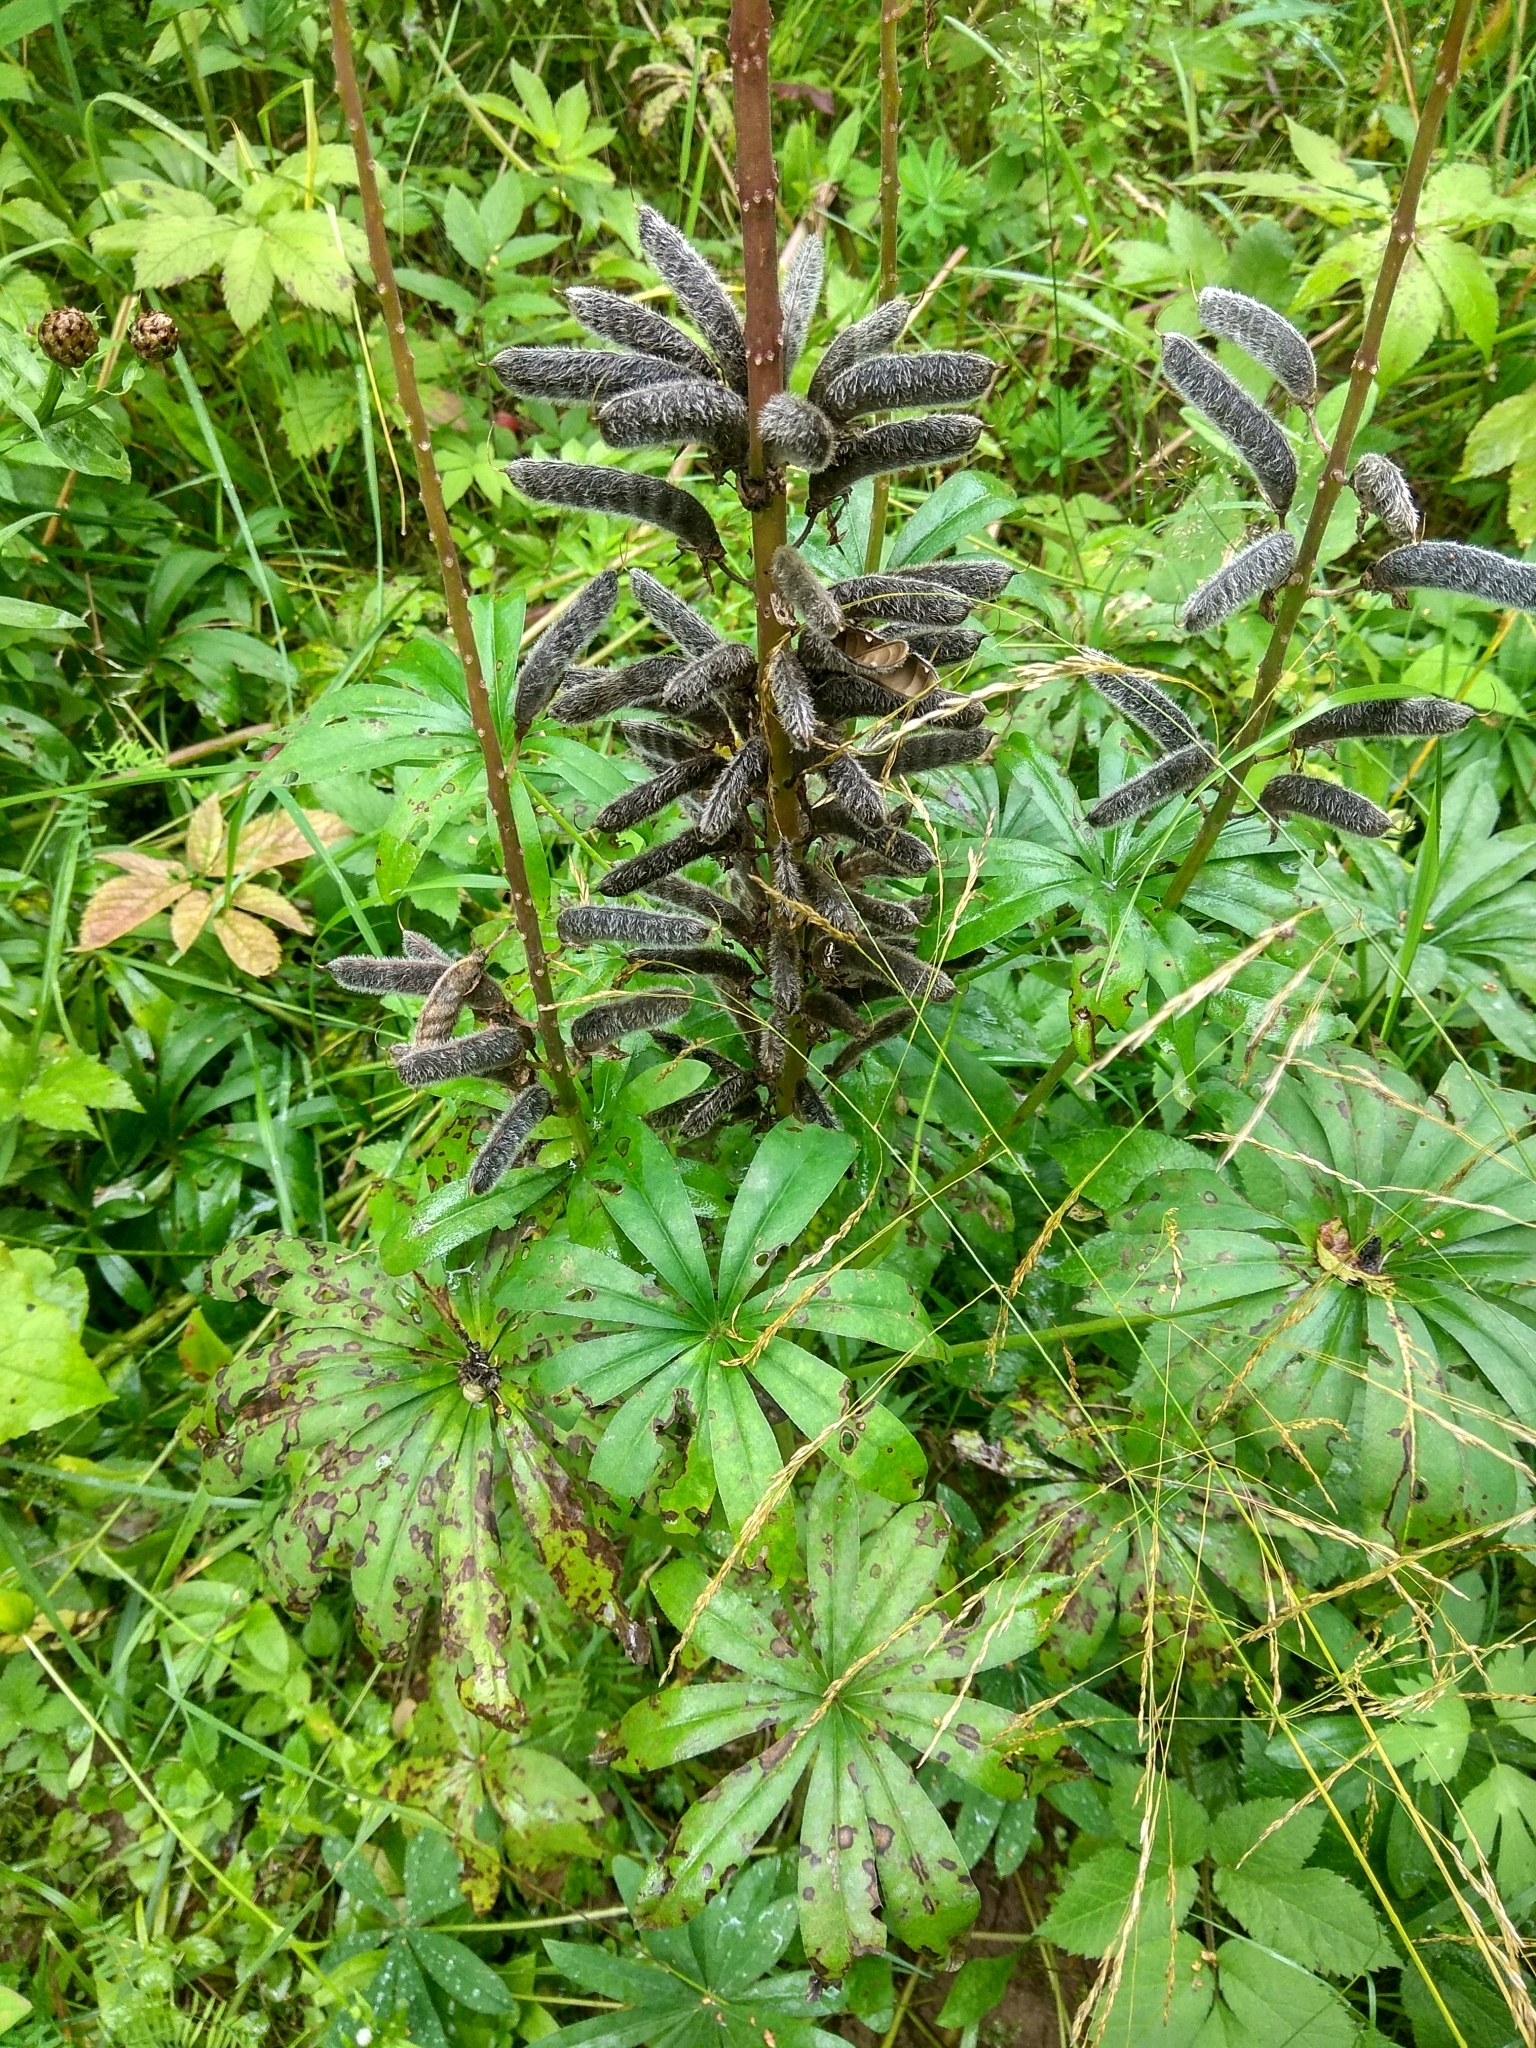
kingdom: Plantae
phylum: Tracheophyta
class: Magnoliopsida
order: Fabales
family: Fabaceae
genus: Lupinus
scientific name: Lupinus polyphyllus
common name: Garden lupin
